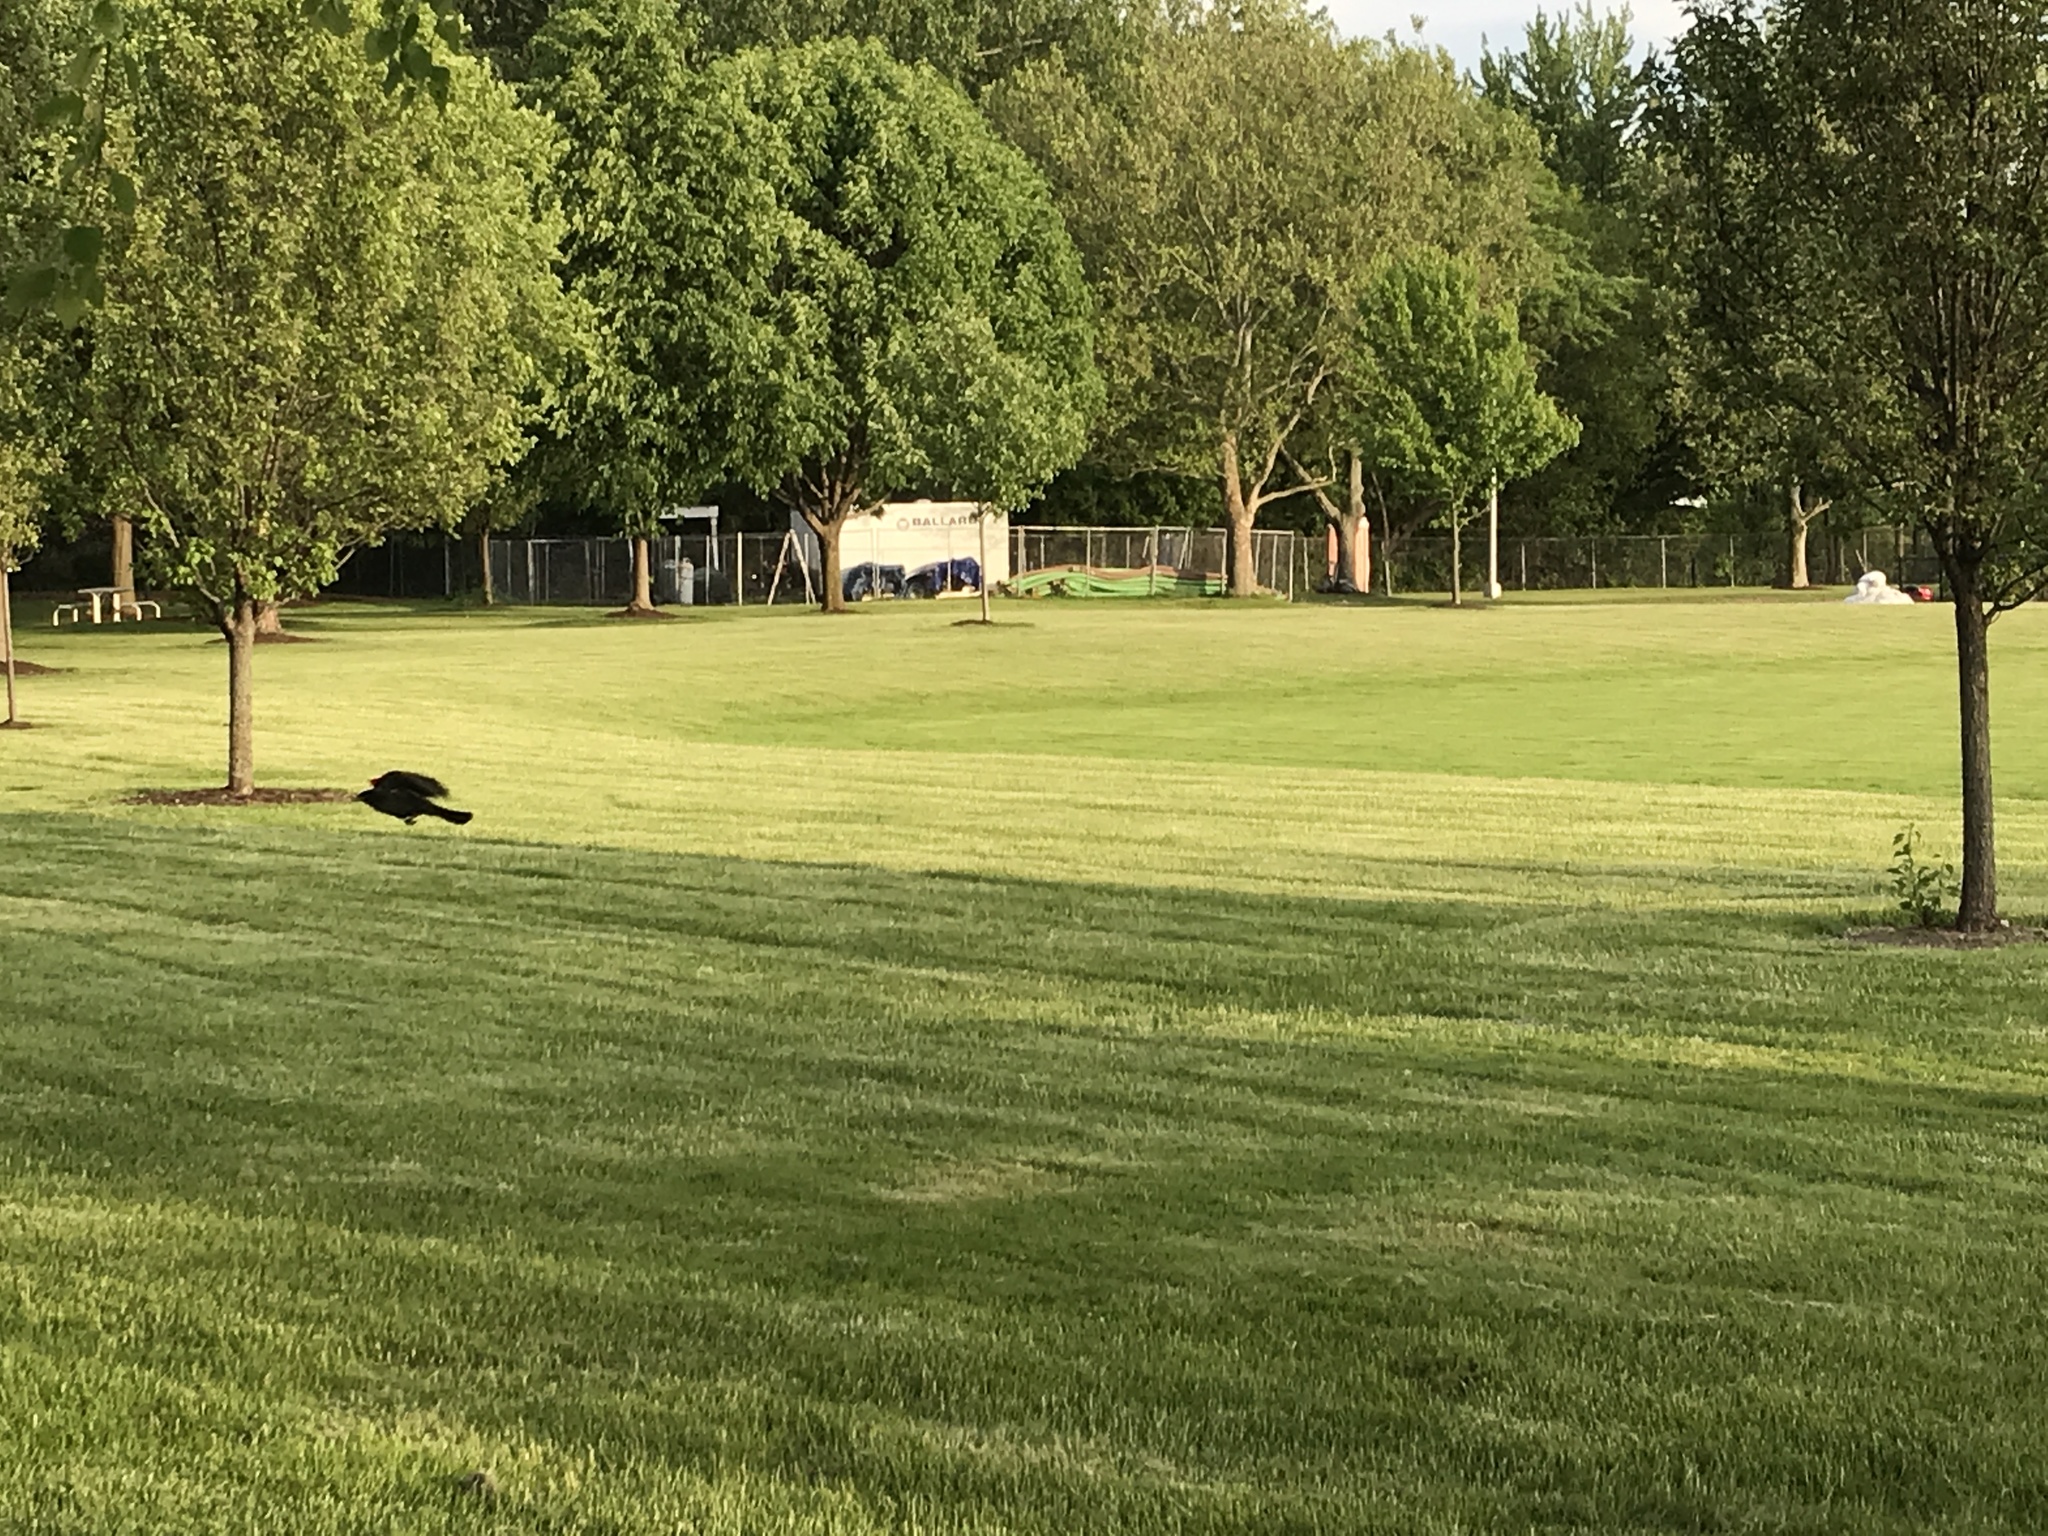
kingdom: Animalia
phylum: Chordata
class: Aves
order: Passeriformes
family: Icteridae
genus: Quiscalus
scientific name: Quiscalus quiscula
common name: Common grackle
